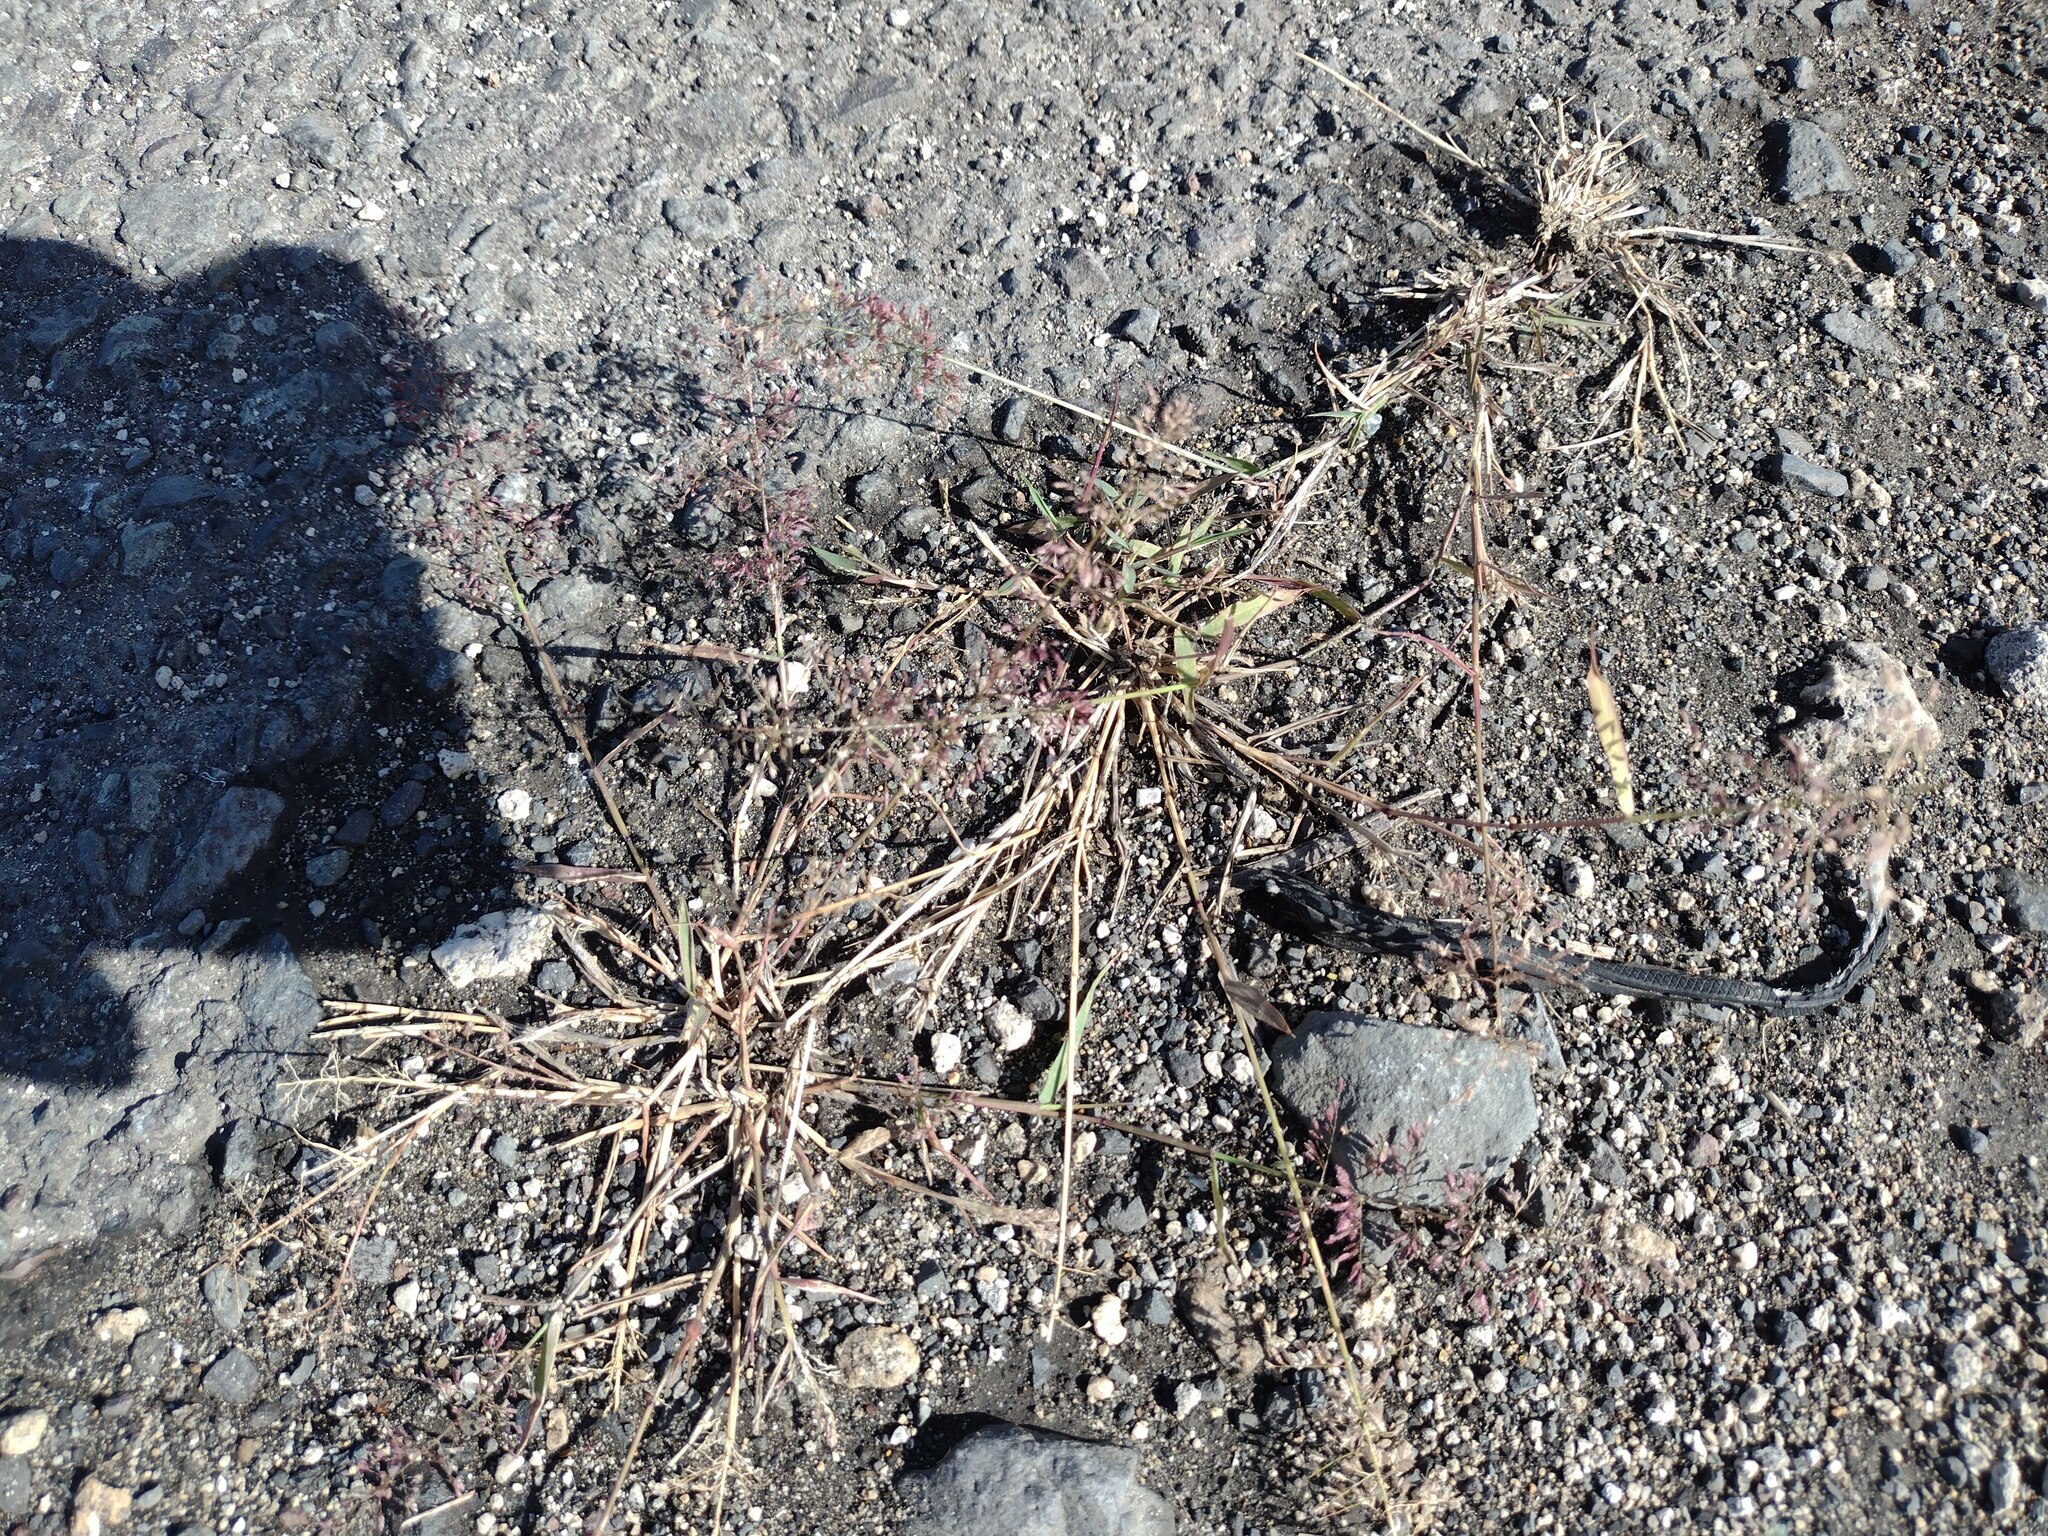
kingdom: Plantae
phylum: Tracheophyta
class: Liliopsida
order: Poales
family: Poaceae
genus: Eragrostis
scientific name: Eragrostis tenella
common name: Japanese lovegrass
